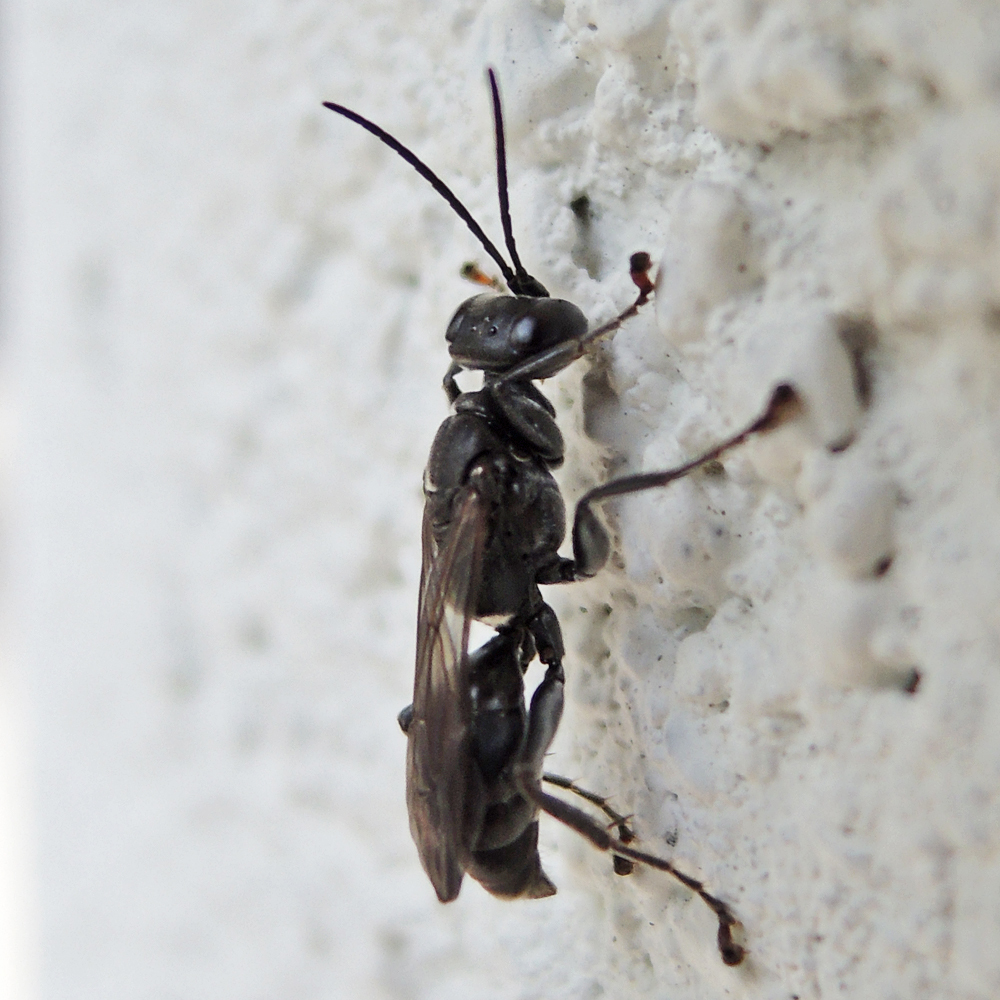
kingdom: Animalia
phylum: Arthropoda
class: Insecta
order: Hymenoptera
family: Crabronidae
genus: Lyroda
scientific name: Lyroda subita
